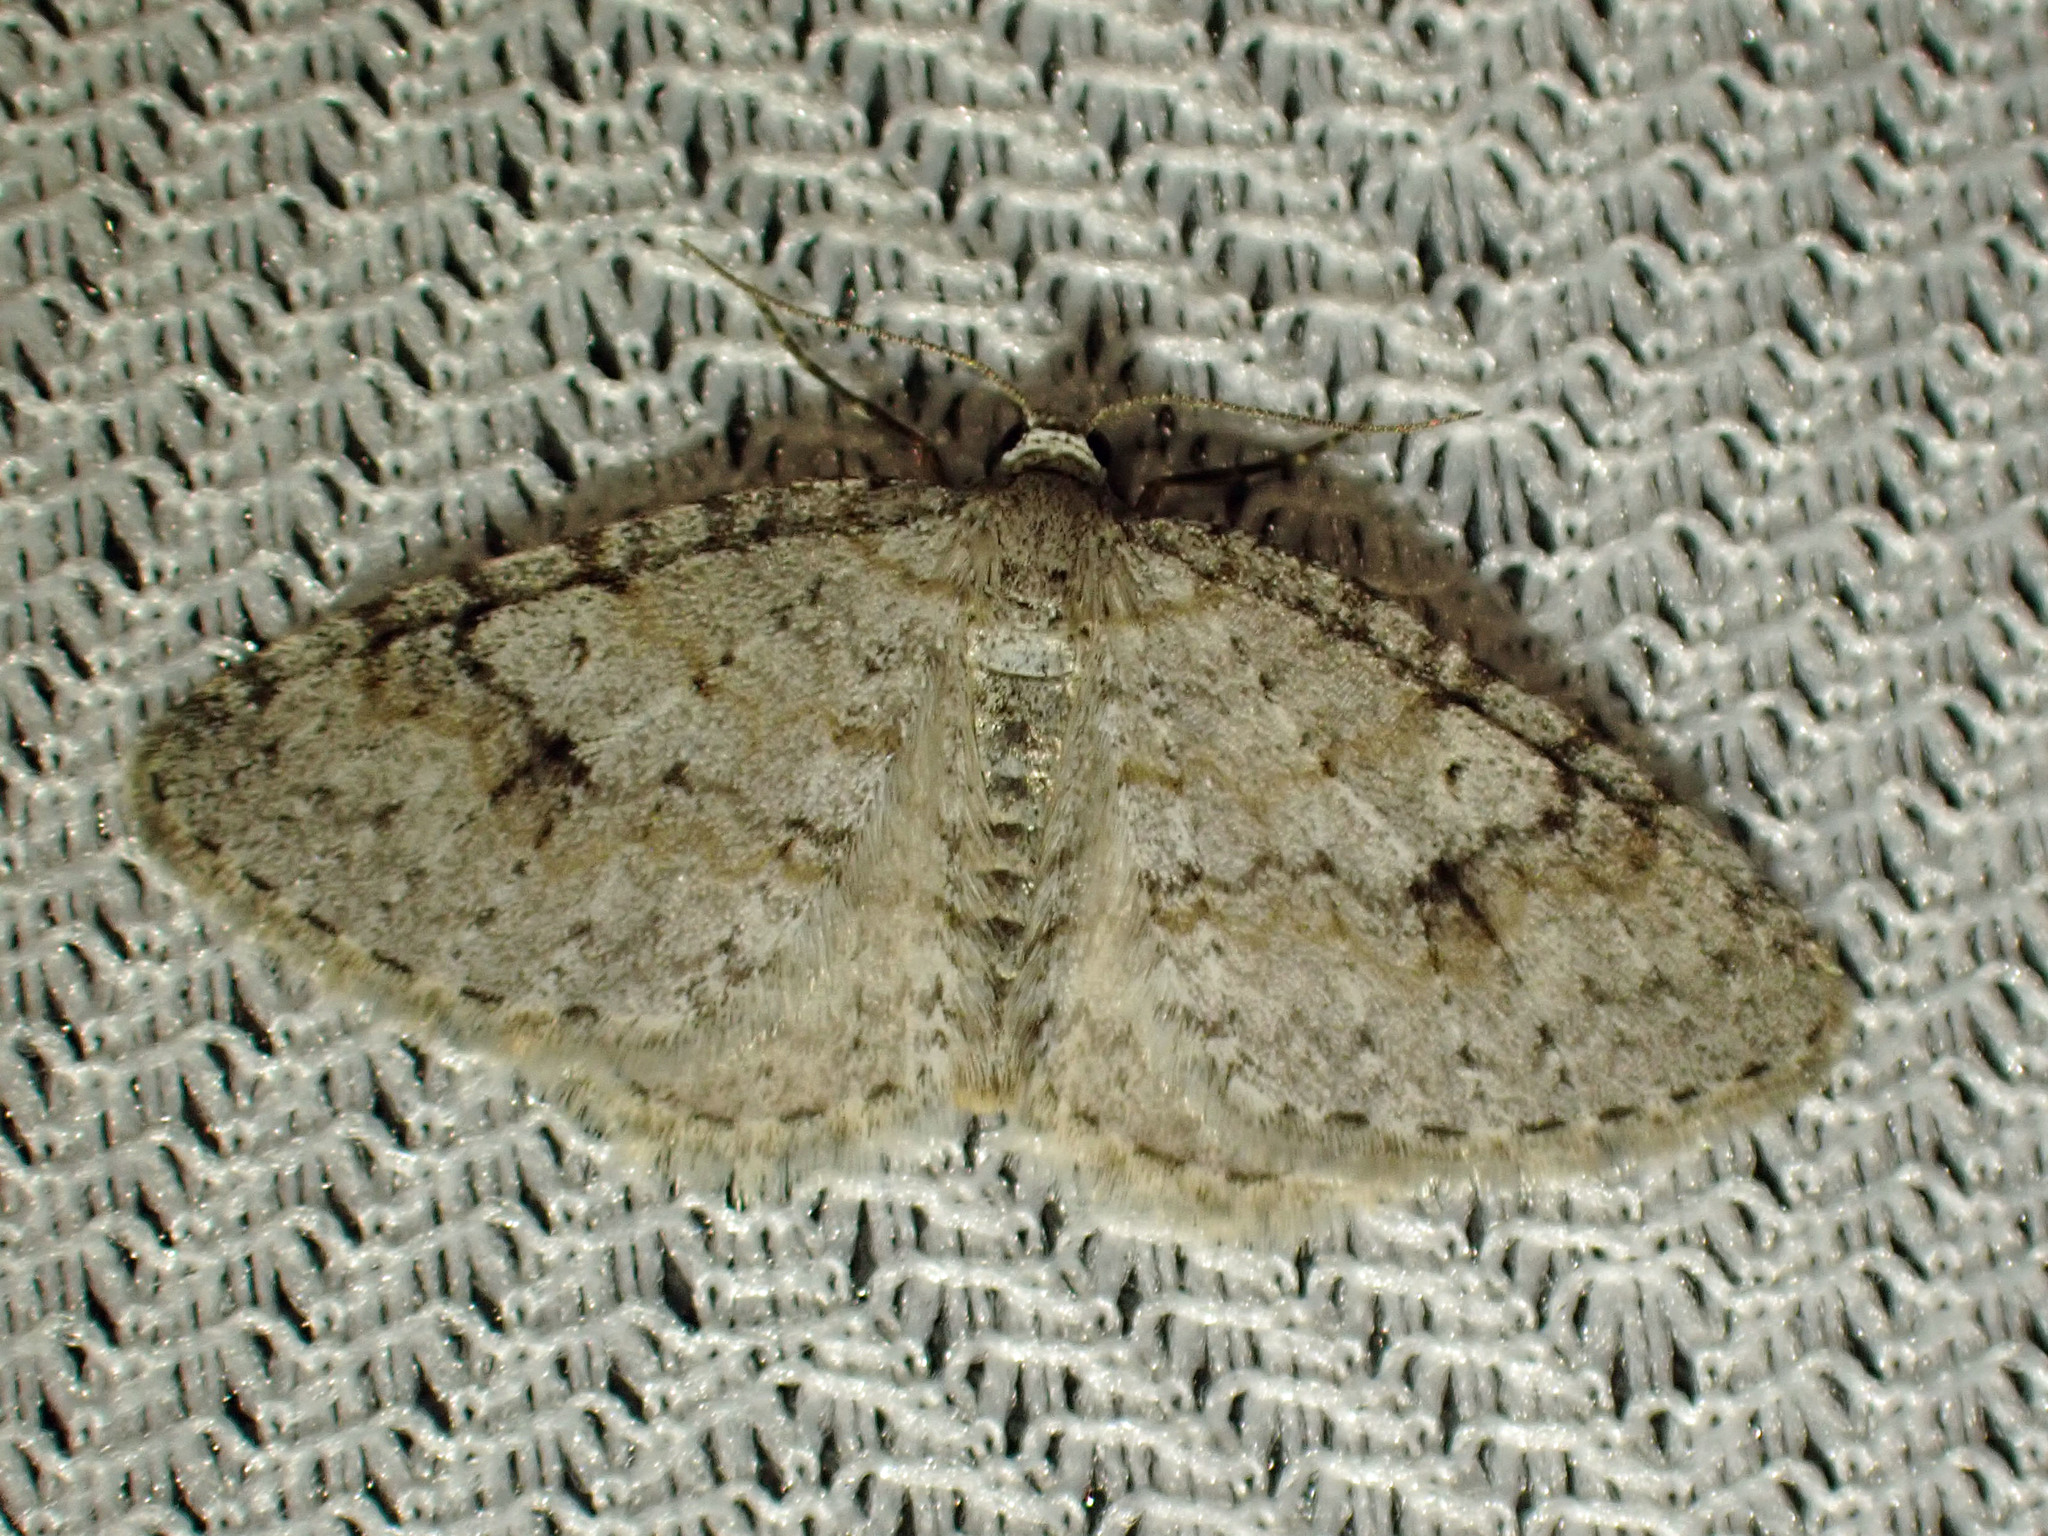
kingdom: Animalia
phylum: Arthropoda
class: Insecta
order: Lepidoptera
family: Geometridae
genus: Venusia
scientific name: Venusia comptaria
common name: Brown-shaded carpet
